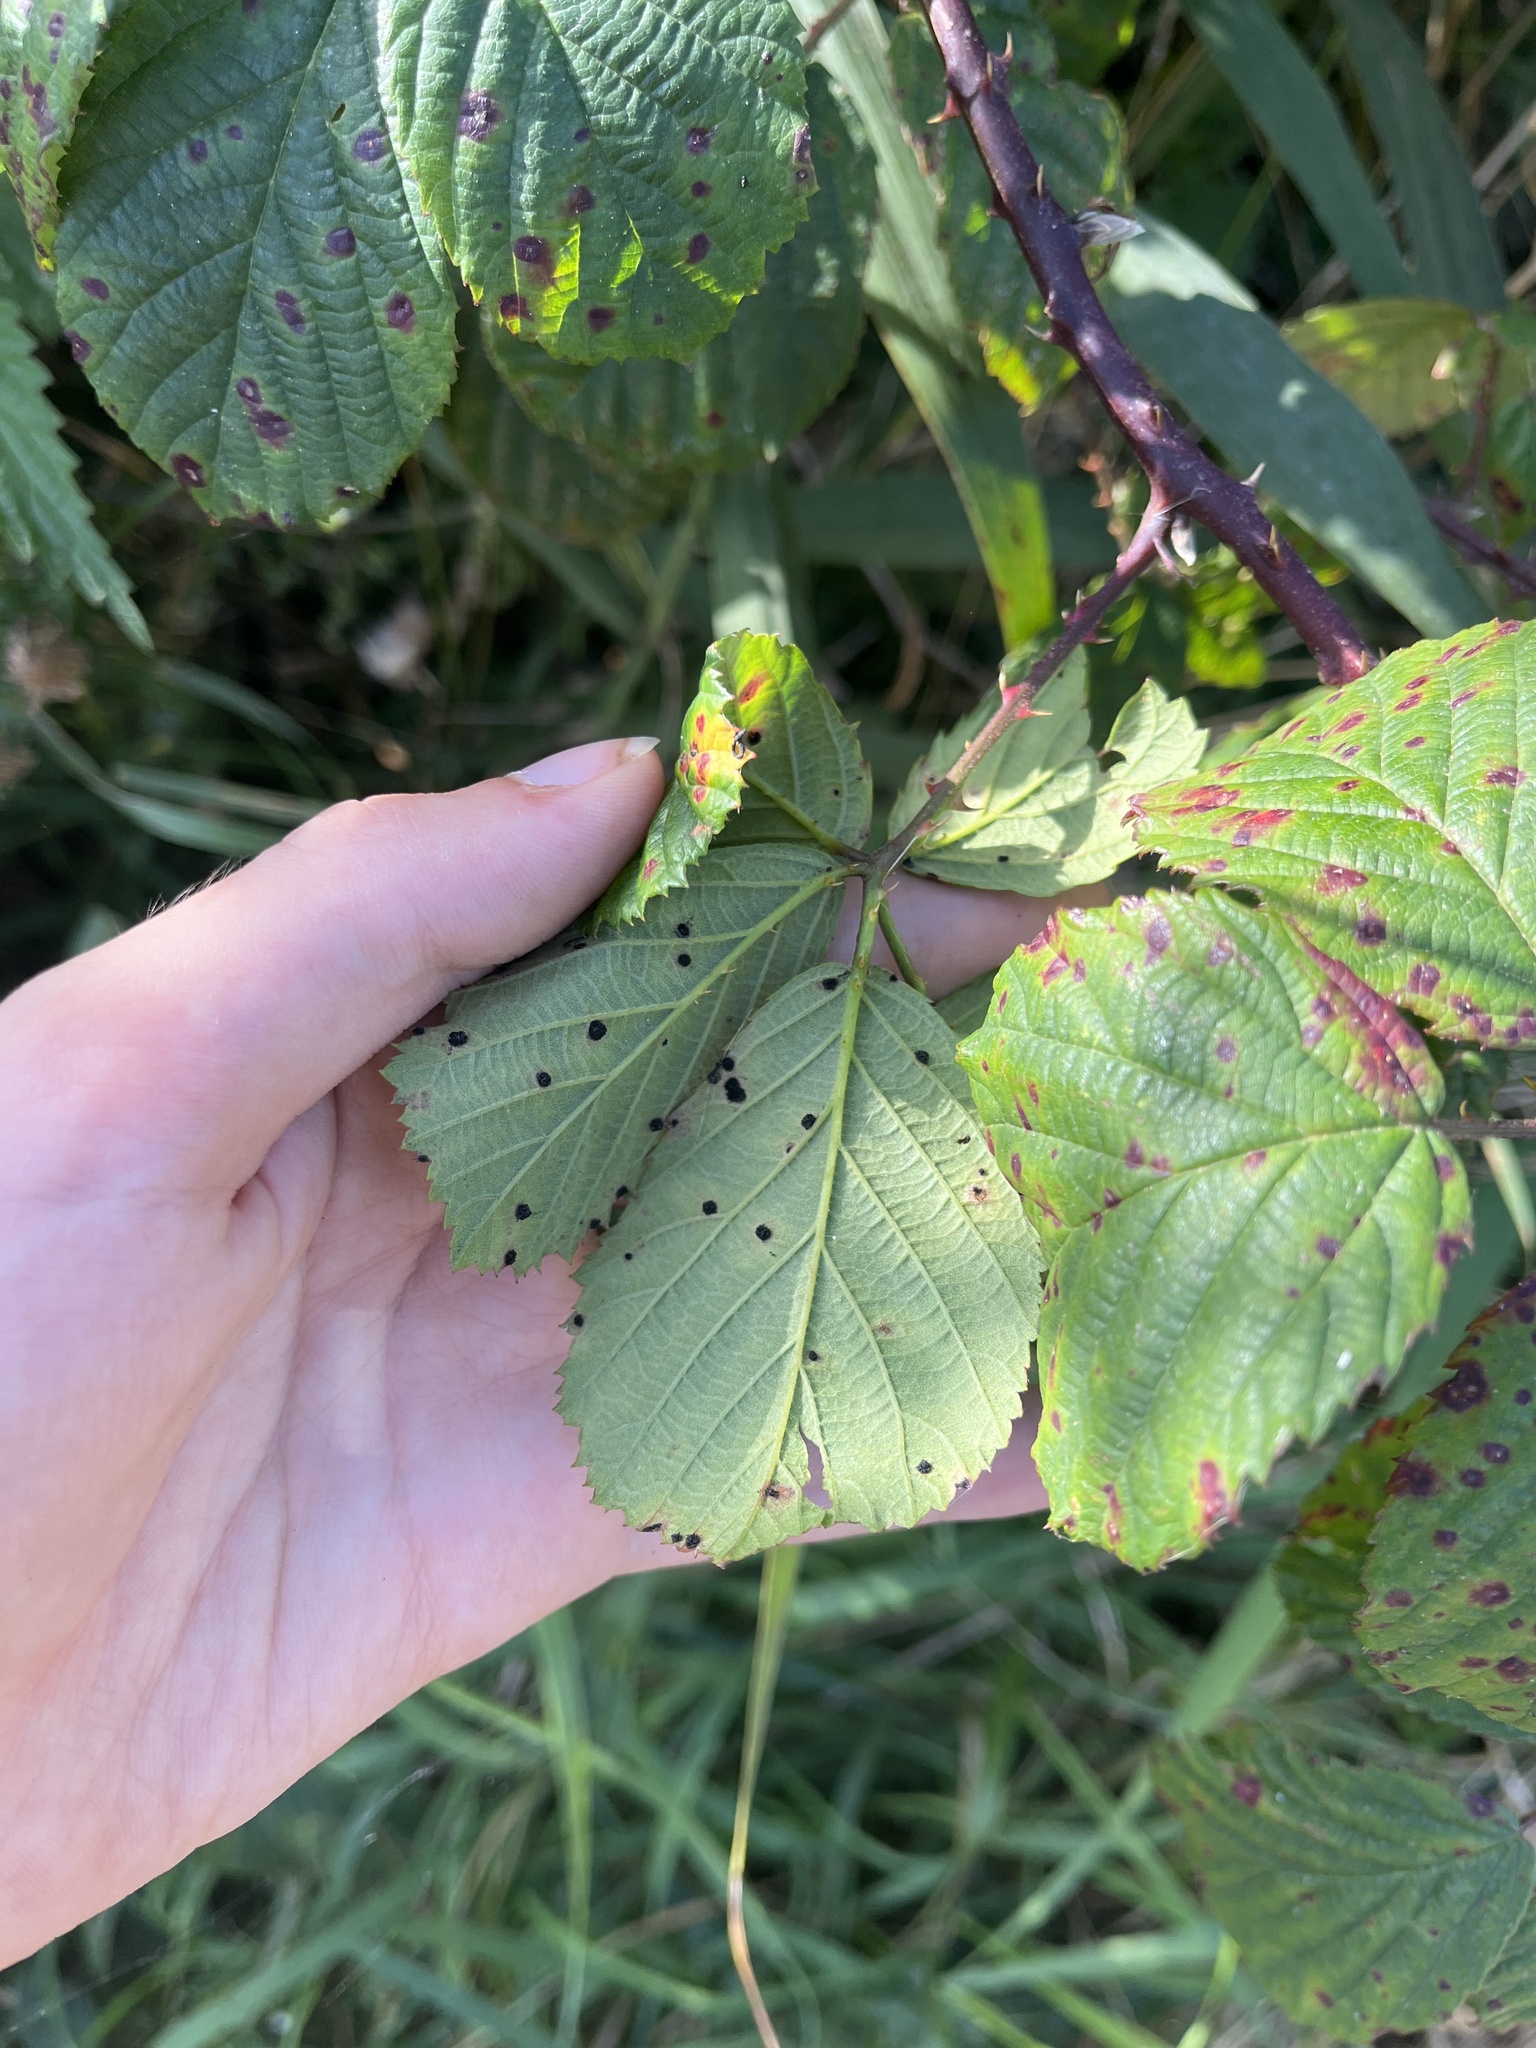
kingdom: Fungi
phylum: Basidiomycota
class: Pucciniomycetes
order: Pucciniales
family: Phragmidiaceae
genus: Phragmidium
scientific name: Phragmidium violaceum
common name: Violet bramble rust
